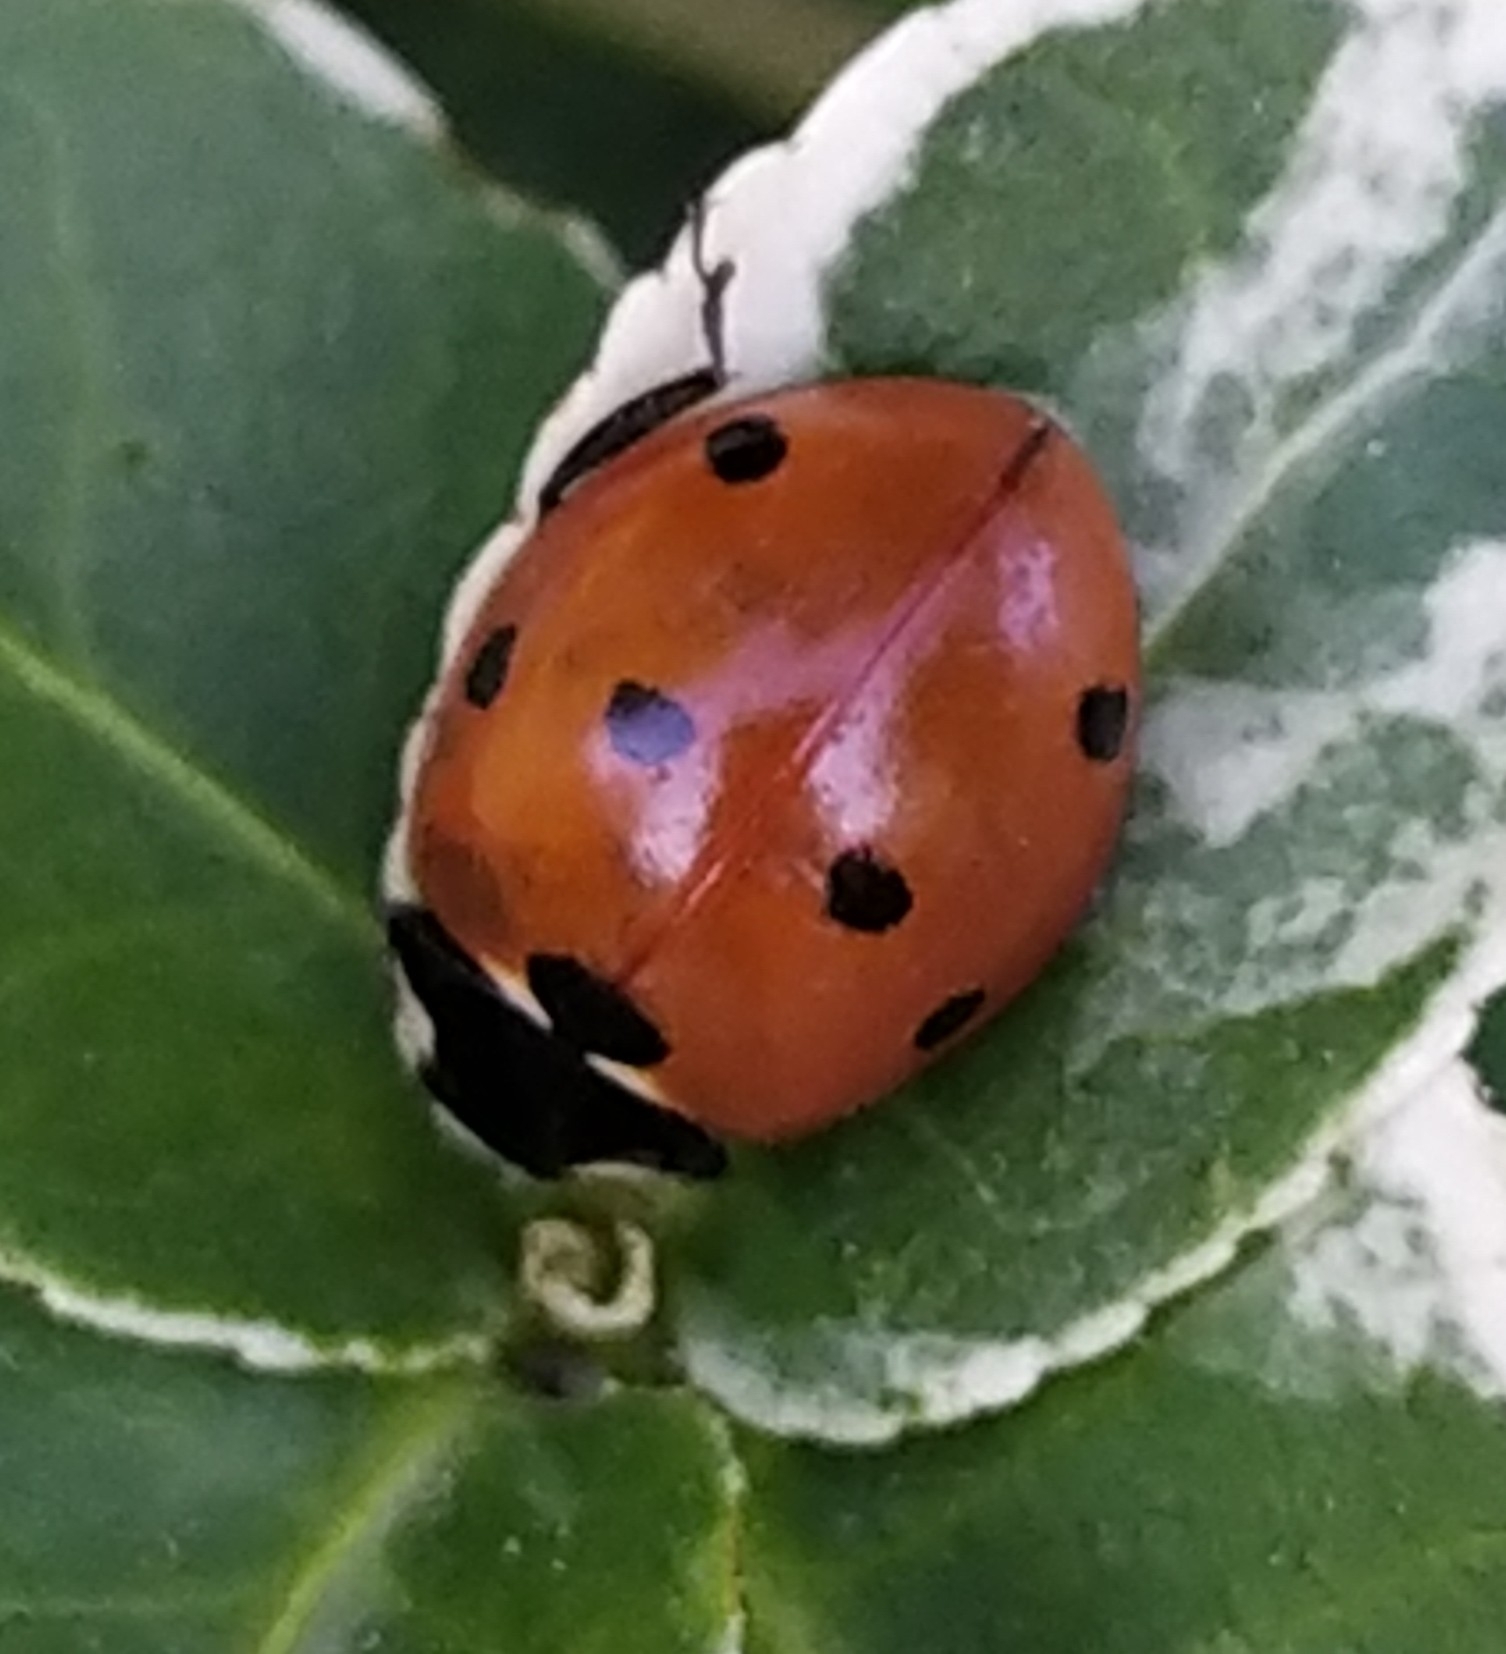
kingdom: Animalia
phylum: Arthropoda
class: Insecta
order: Coleoptera
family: Coccinellidae
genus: Coccinella
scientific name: Coccinella septempunctata
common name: Sevenspotted lady beetle
